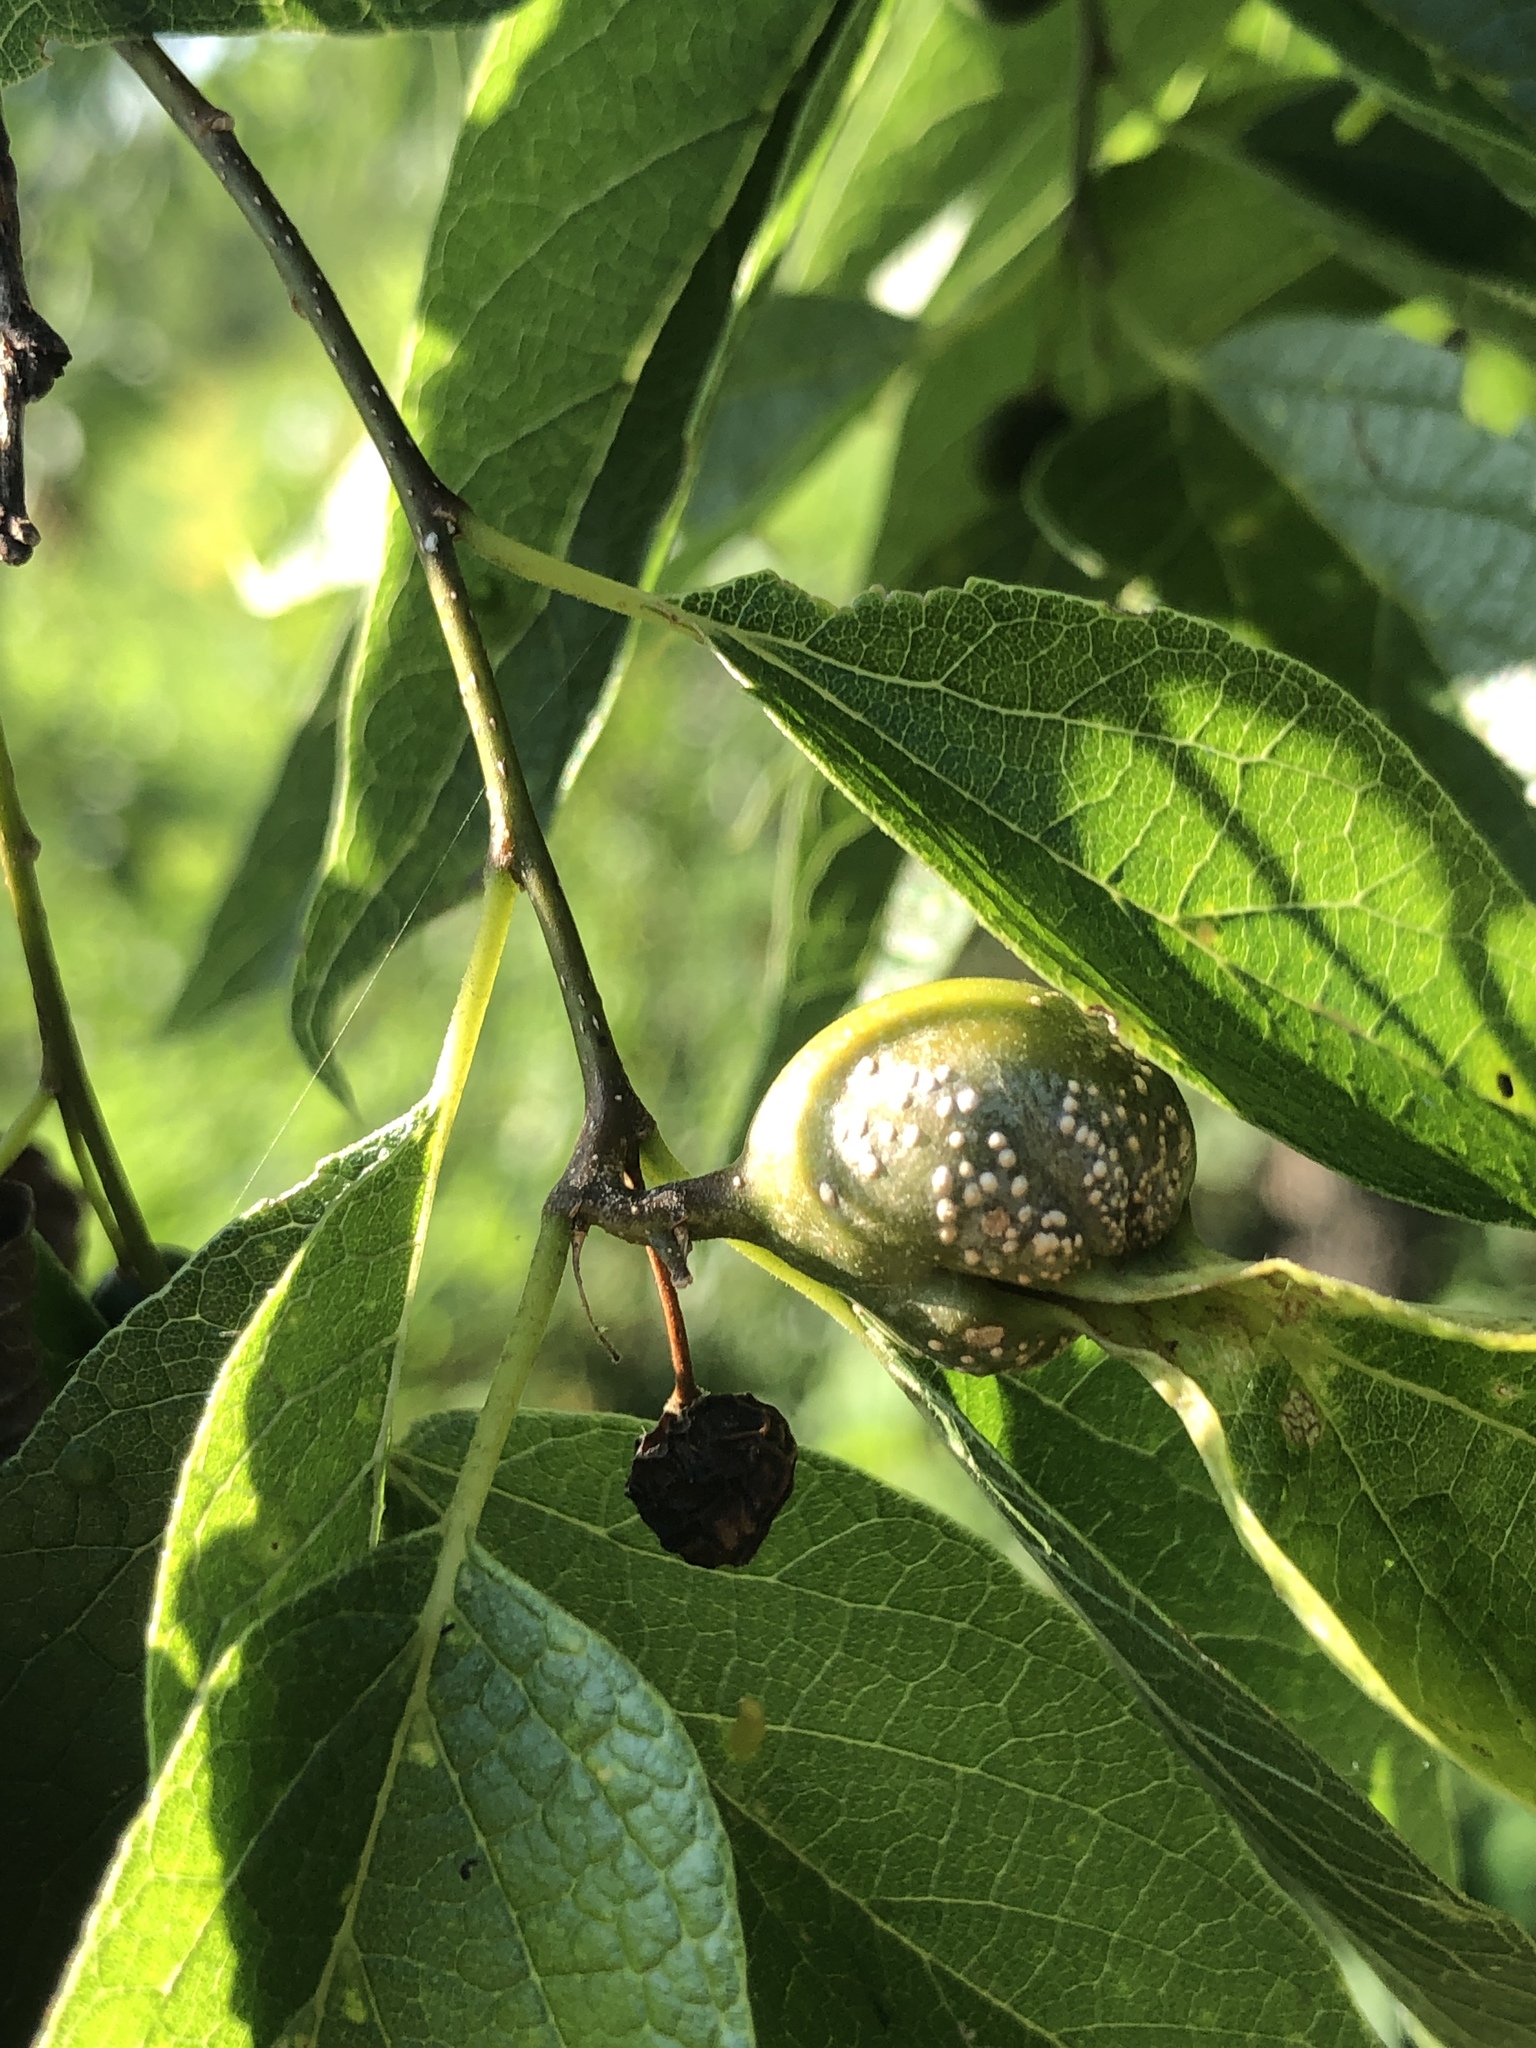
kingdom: Animalia
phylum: Arthropoda
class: Insecta
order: Hemiptera
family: Aphalaridae
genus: Pachypsylla
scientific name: Pachypsylla venusta
